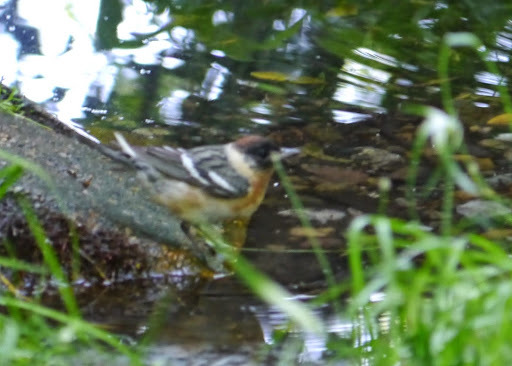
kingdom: Animalia
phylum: Chordata
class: Aves
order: Passeriformes
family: Parulidae
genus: Setophaga
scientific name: Setophaga castanea
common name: Bay-breasted warbler
